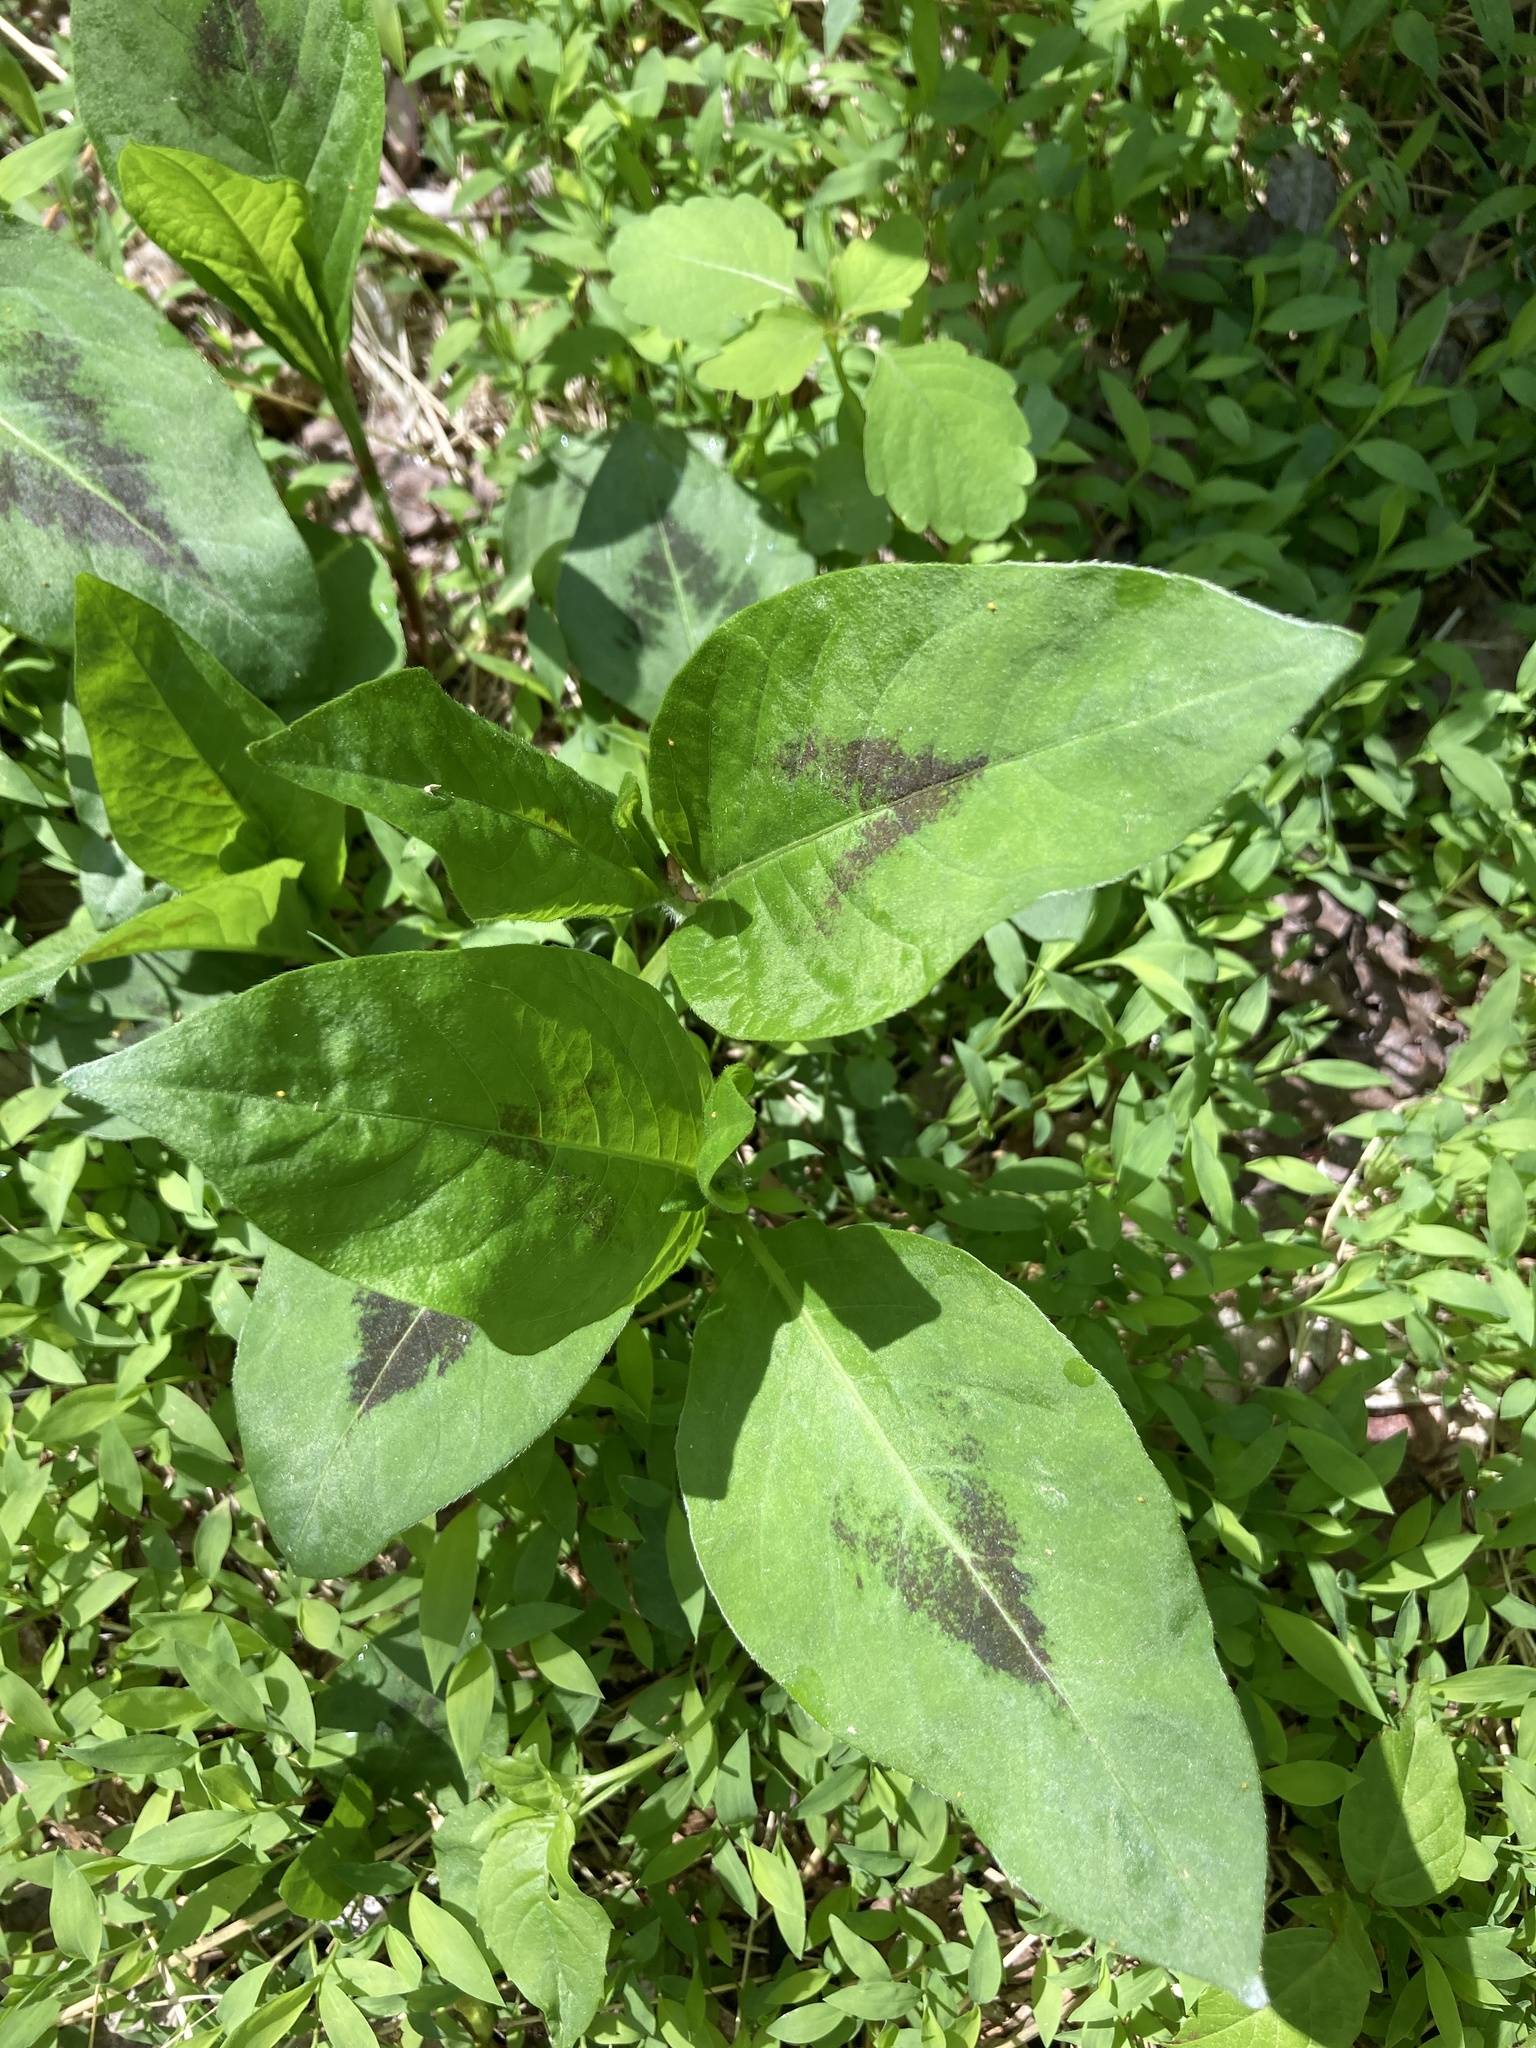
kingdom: Plantae
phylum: Tracheophyta
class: Magnoliopsida
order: Caryophyllales
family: Polygonaceae
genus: Persicaria
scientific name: Persicaria virginiana
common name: Jumpseed
